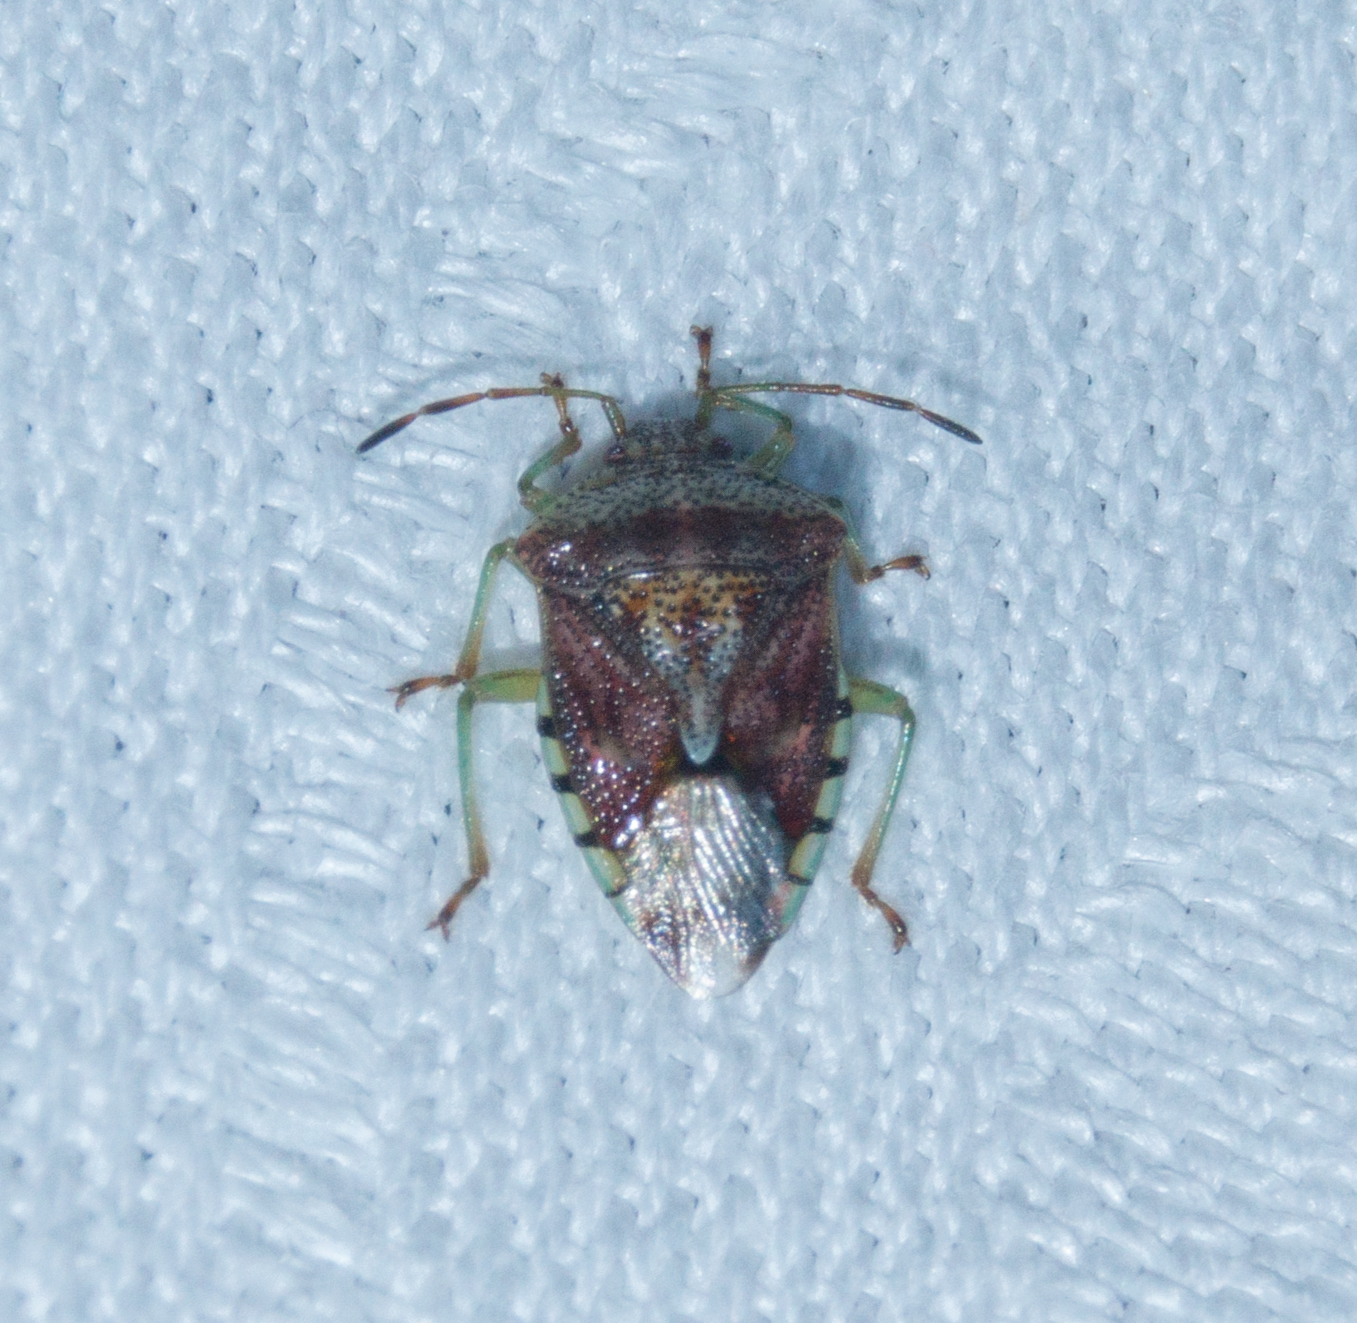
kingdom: Animalia
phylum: Arthropoda
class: Insecta
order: Hemiptera
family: Acanthosomatidae
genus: Elasmucha
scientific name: Elasmucha grisea
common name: Parent bug
